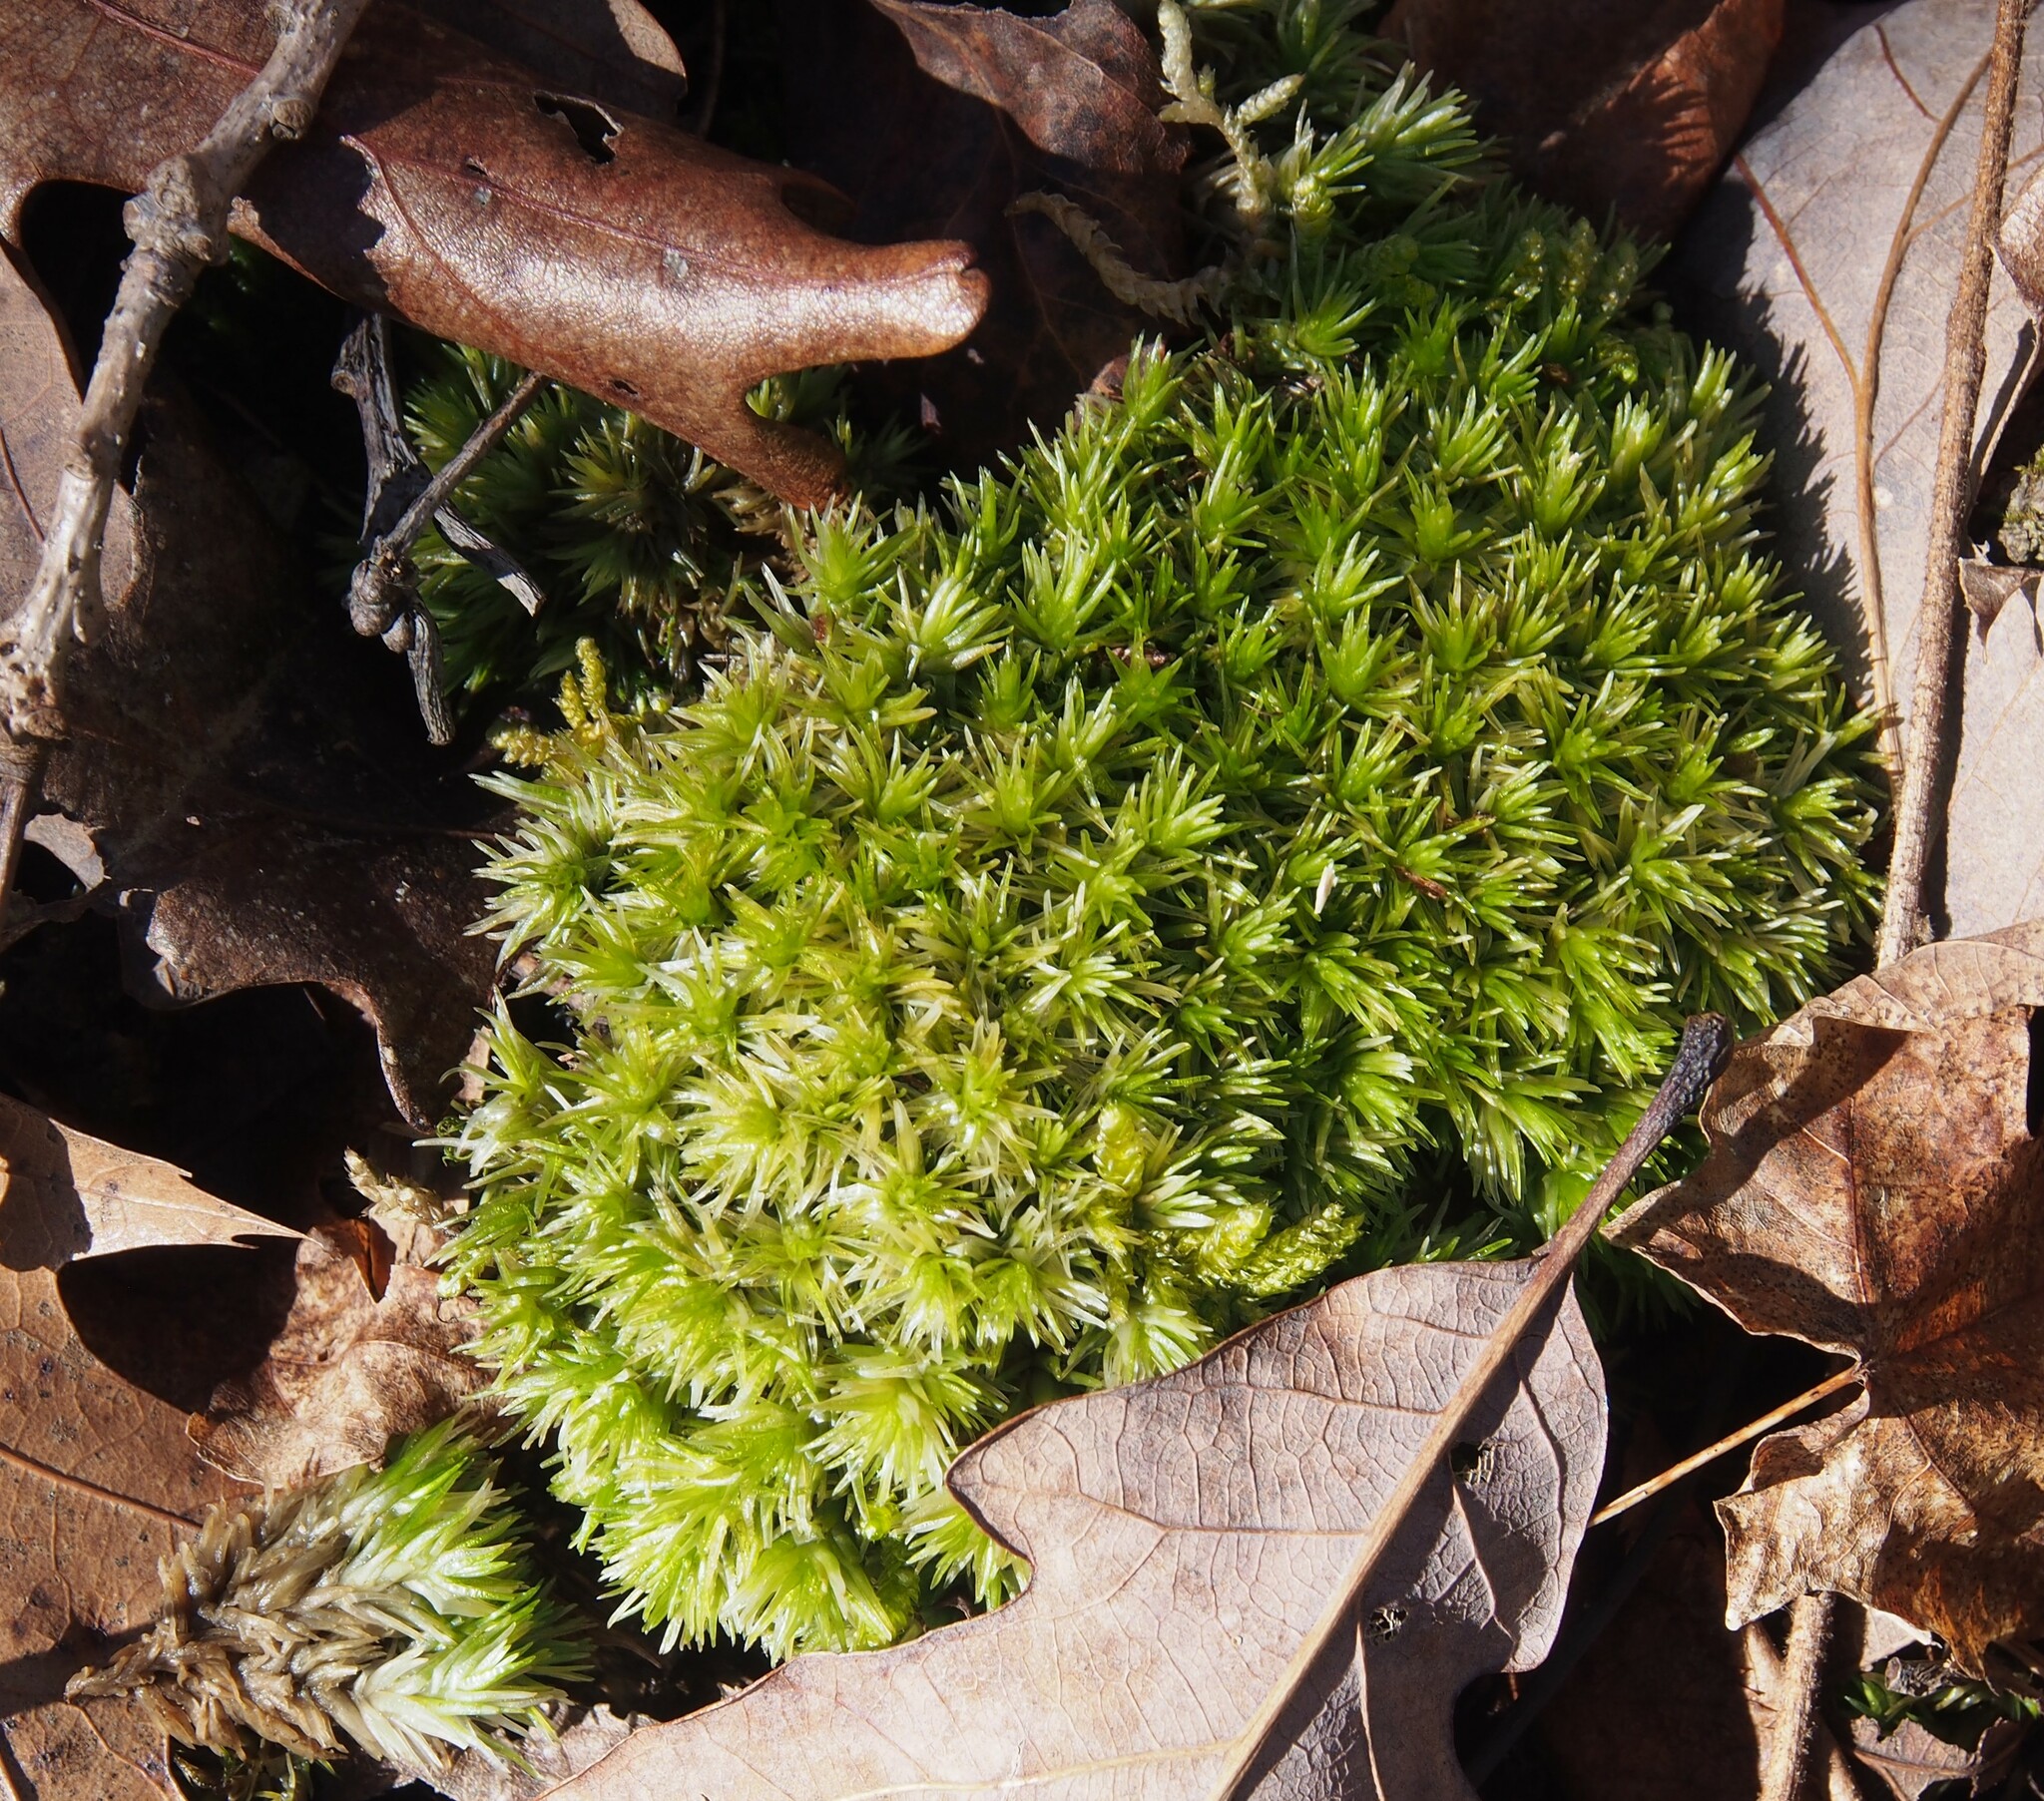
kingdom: Plantae
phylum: Bryophyta
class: Bryopsida
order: Dicranales
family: Leucobryaceae
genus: Leucobryum
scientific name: Leucobryum glaucum
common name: Large white-moss
